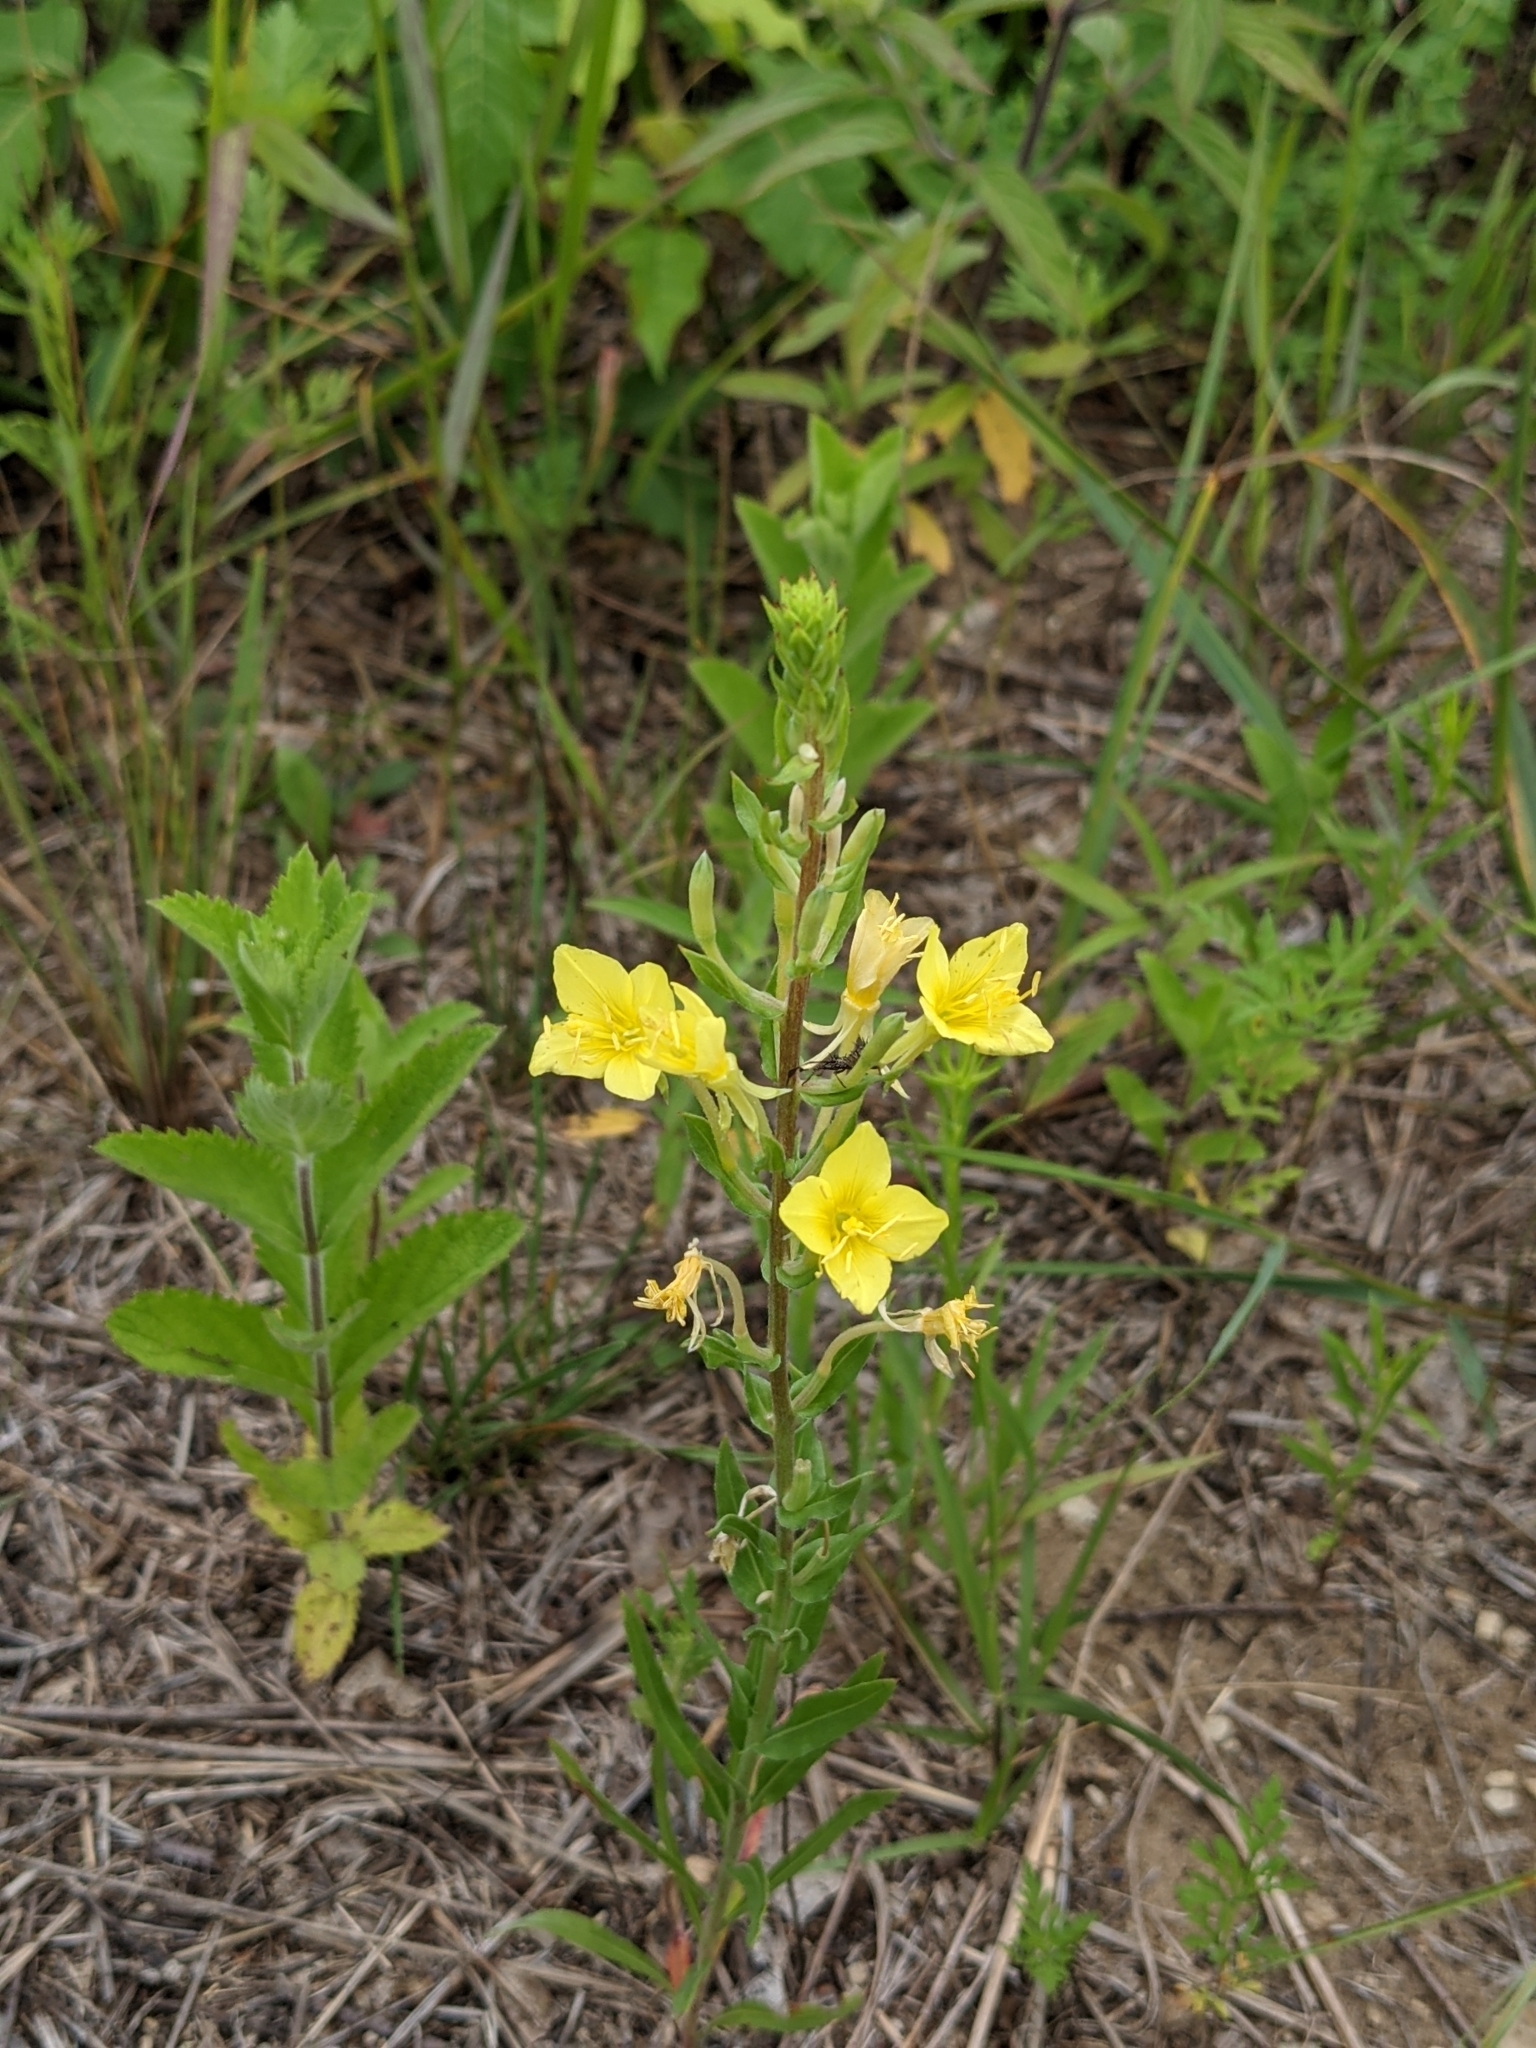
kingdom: Plantae
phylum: Tracheophyta
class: Magnoliopsida
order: Myrtales
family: Onagraceae
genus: Oenothera
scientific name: Oenothera clelandii
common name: Cleland's evening-primrose
